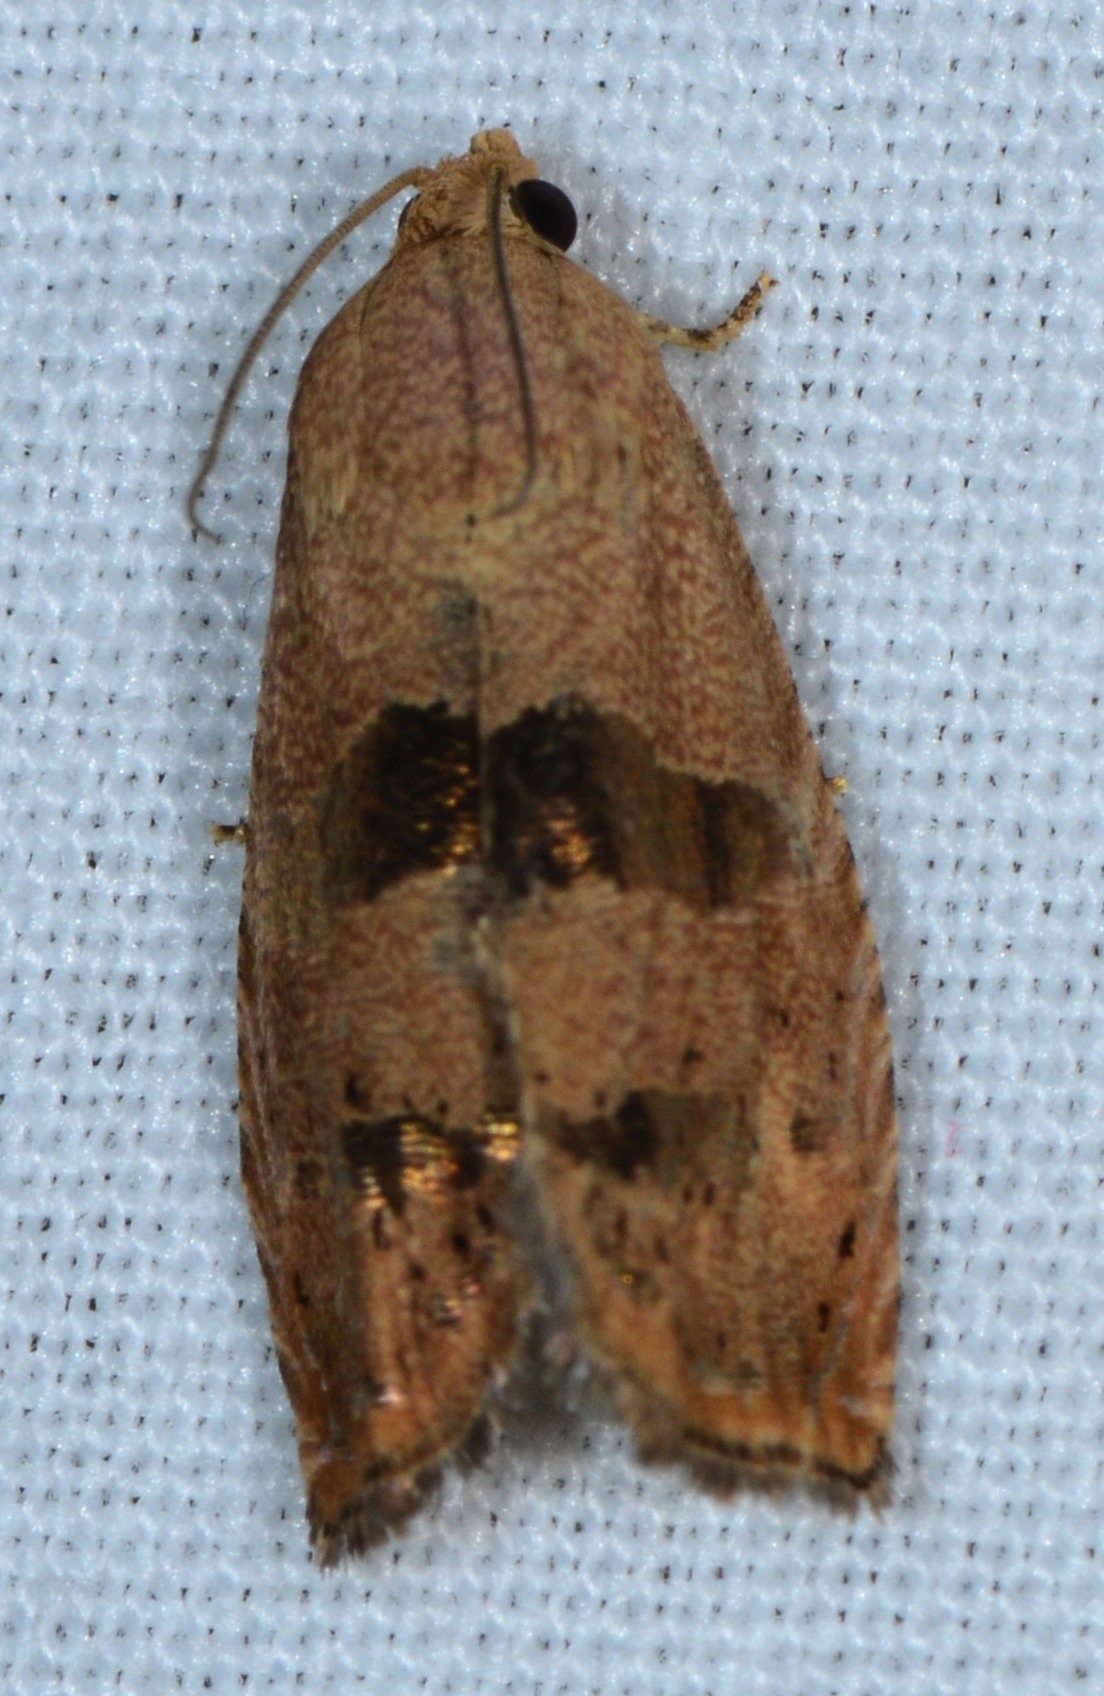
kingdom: Animalia
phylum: Arthropoda
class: Insecta
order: Lepidoptera
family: Tortricidae
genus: Cydia
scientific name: Cydia latiferreana
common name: Filbertworm moth
